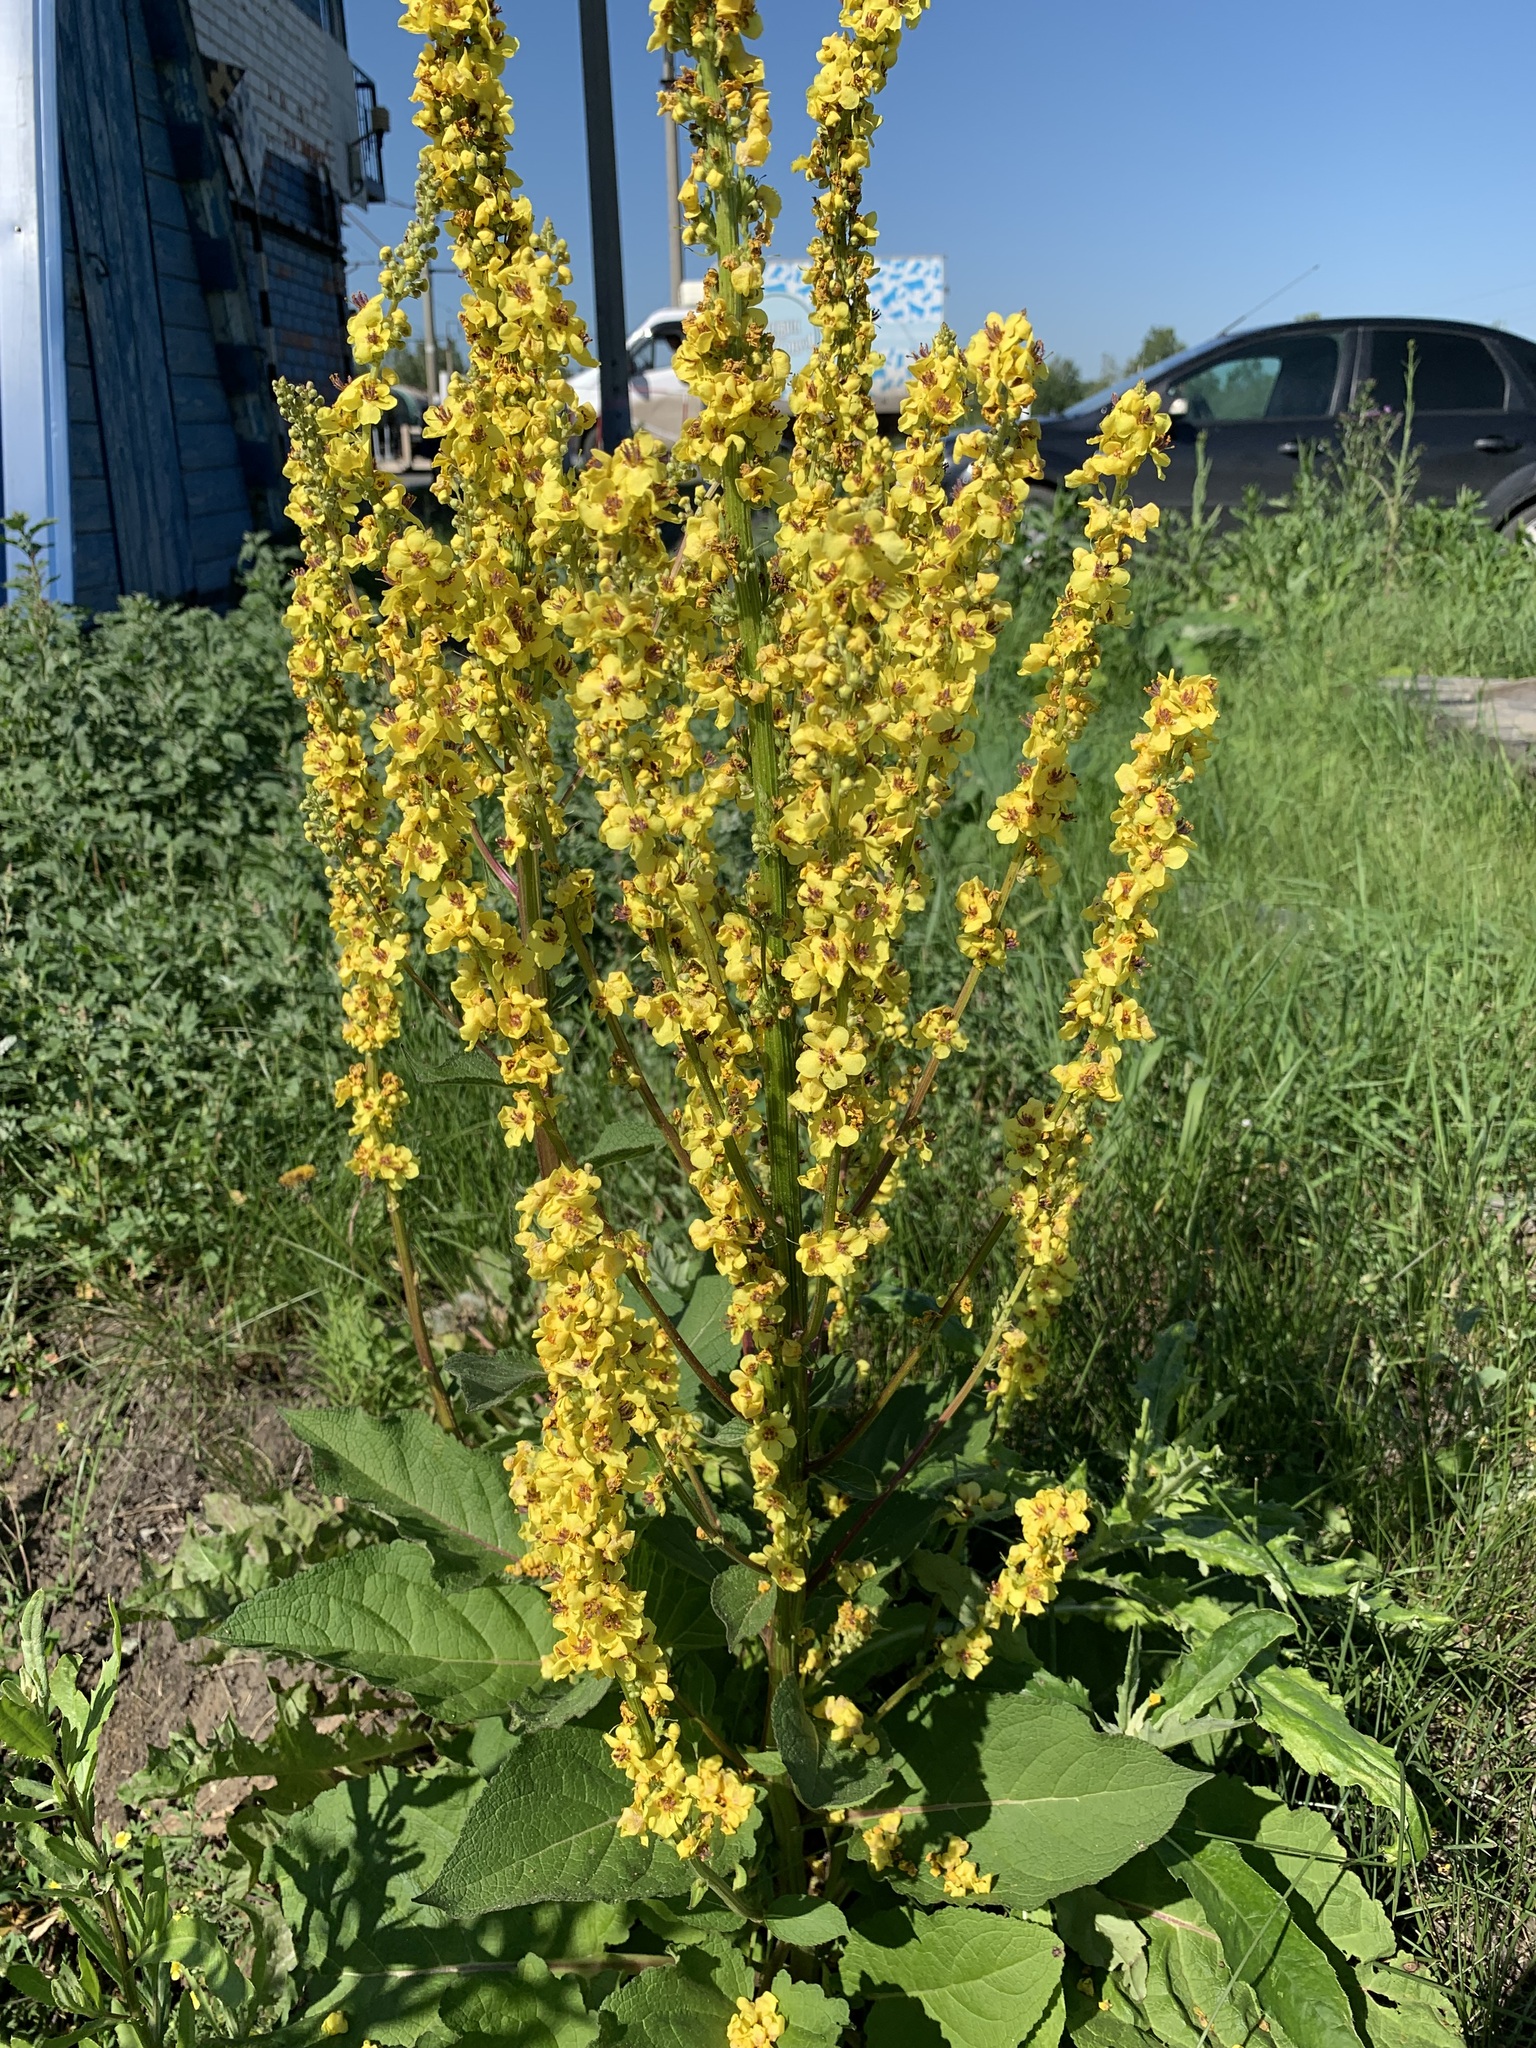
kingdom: Plantae
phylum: Tracheophyta
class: Magnoliopsida
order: Lamiales
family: Scrophulariaceae
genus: Verbascum
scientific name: Verbascum nigrum
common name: Dark mullein
